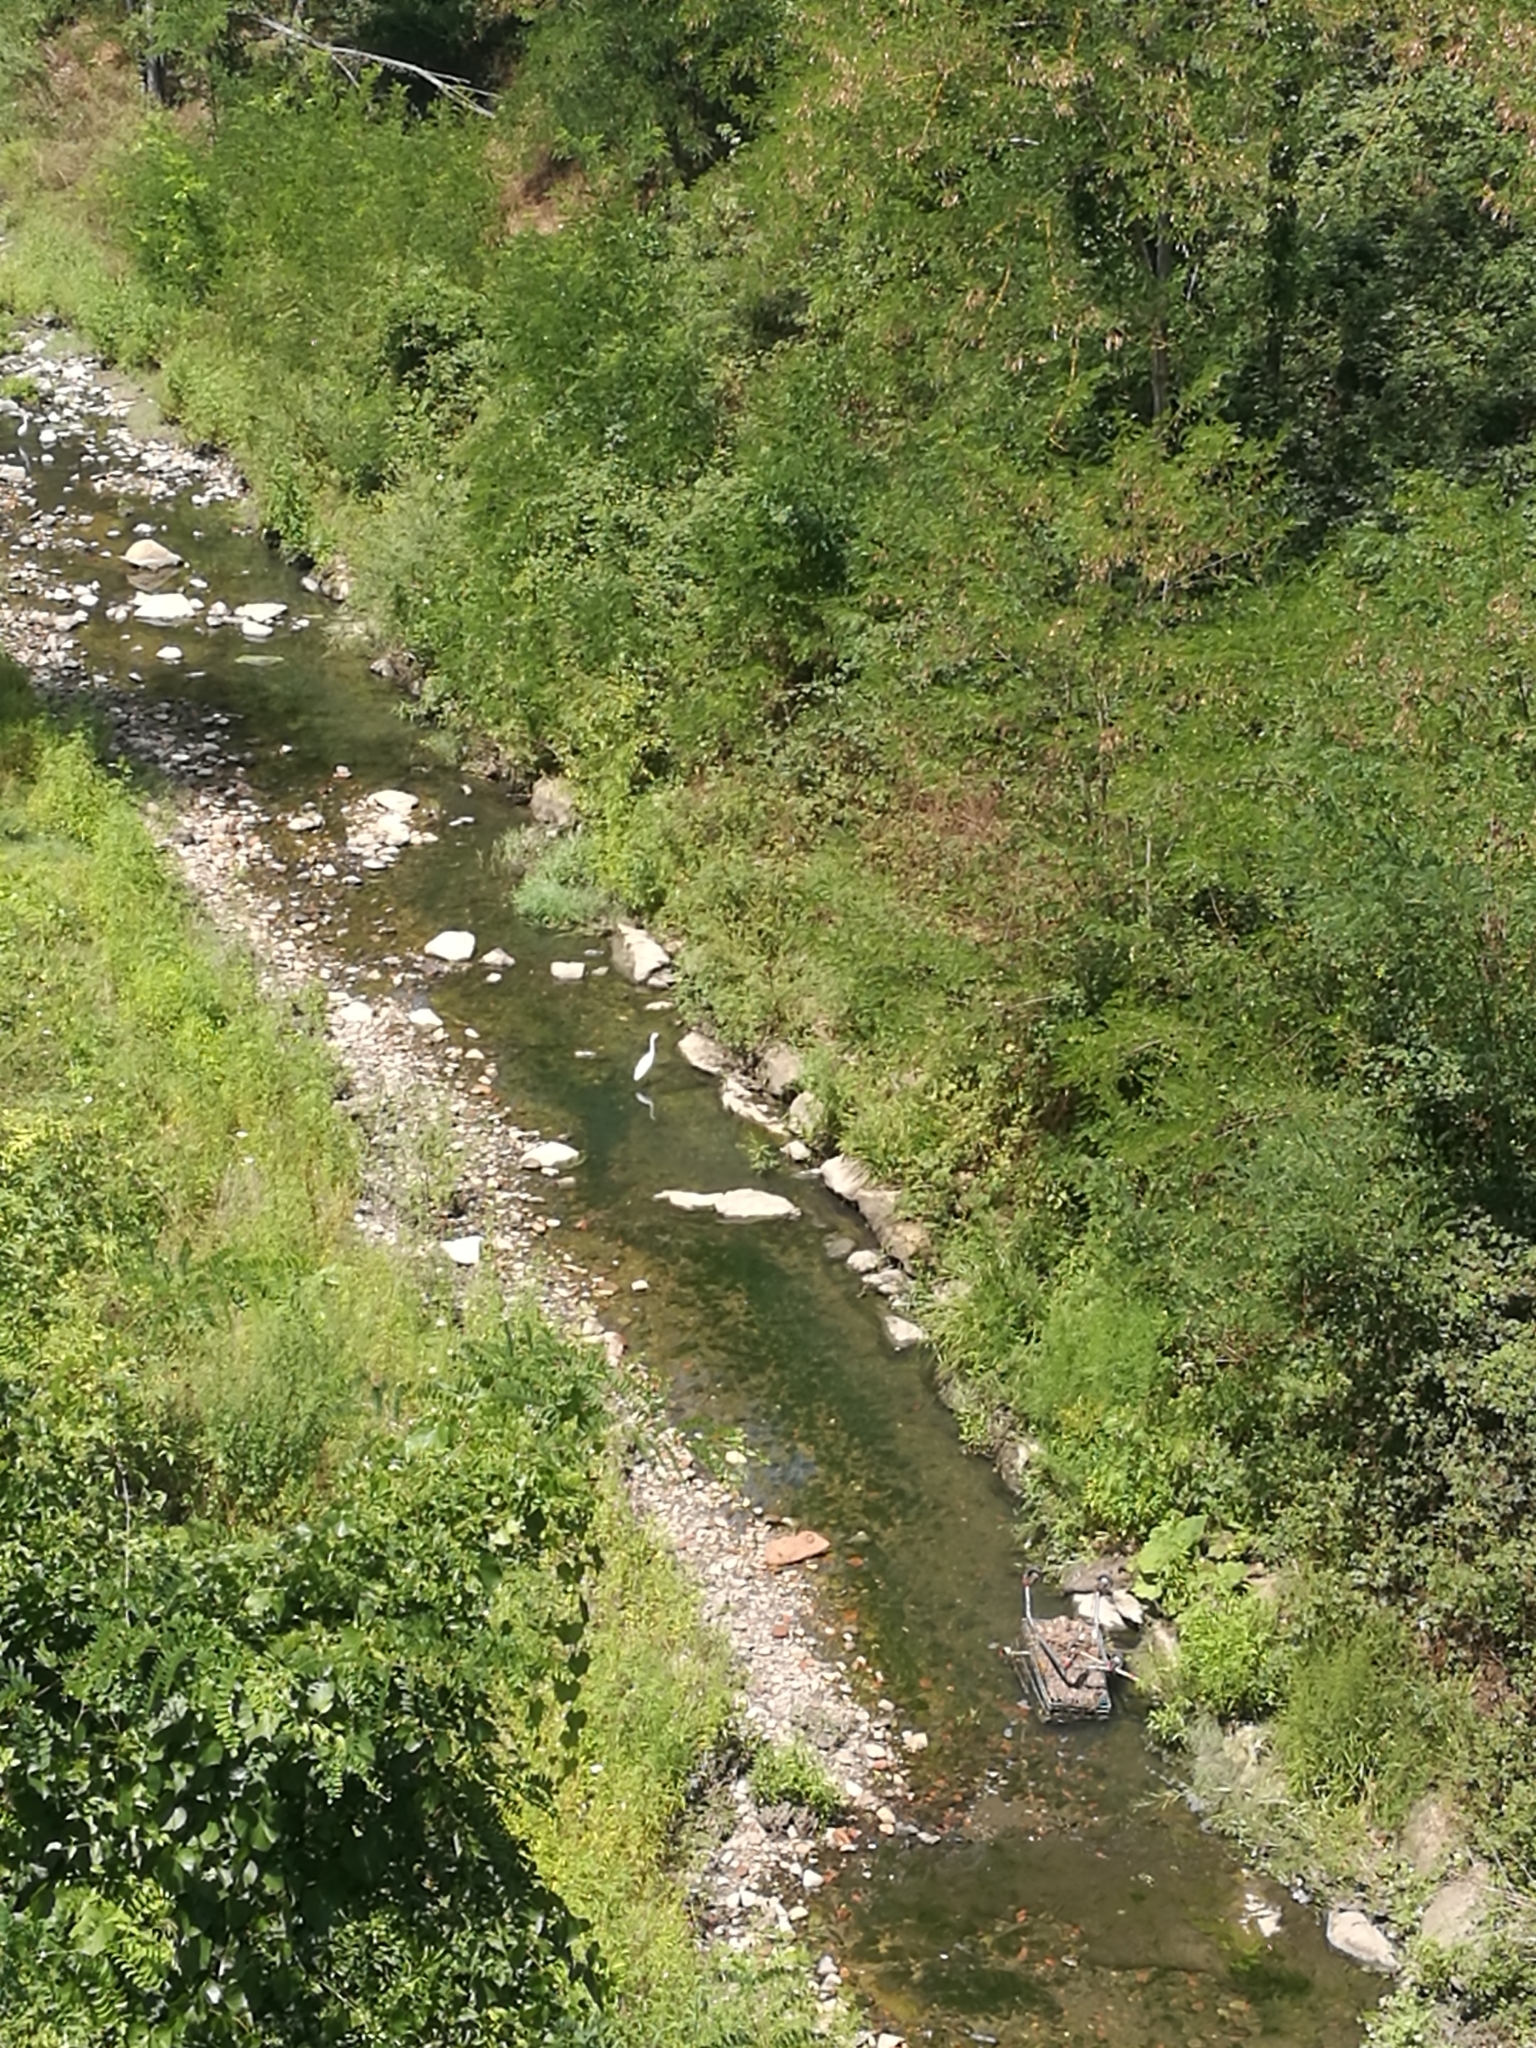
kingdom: Animalia
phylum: Chordata
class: Aves
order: Pelecaniformes
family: Ardeidae
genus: Egretta
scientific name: Egretta garzetta
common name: Little egret
